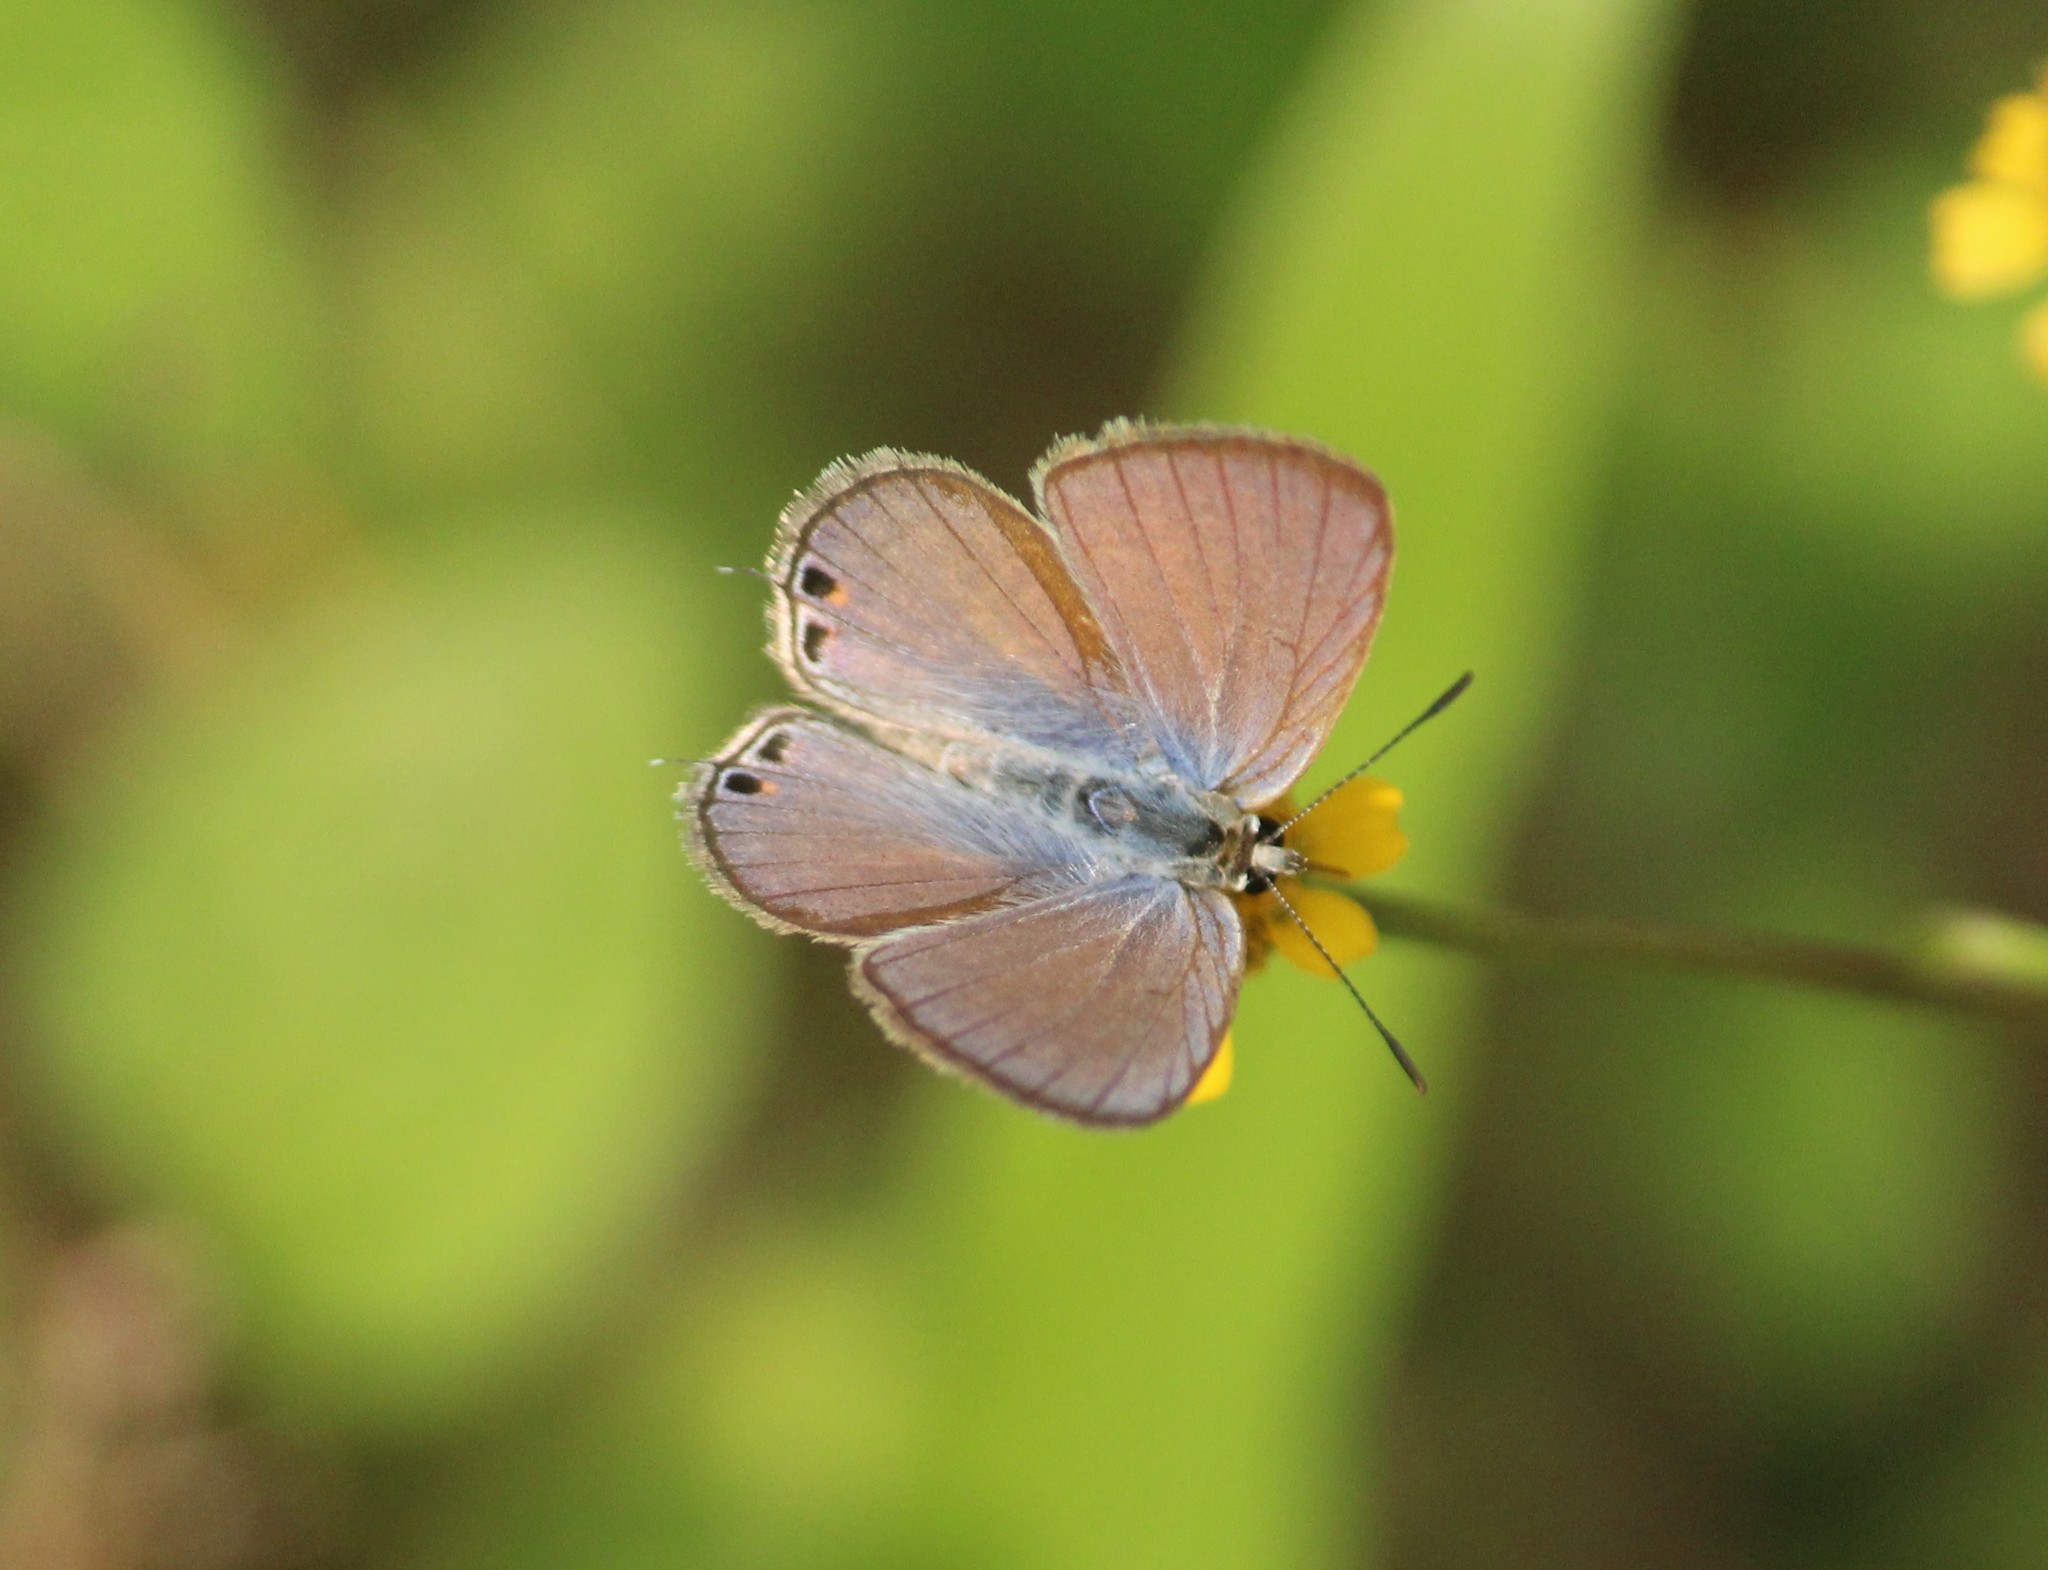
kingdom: Animalia
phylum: Arthropoda
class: Insecta
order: Lepidoptera
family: Lycaenidae
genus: Euchrysops
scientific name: Euchrysops cnejus
